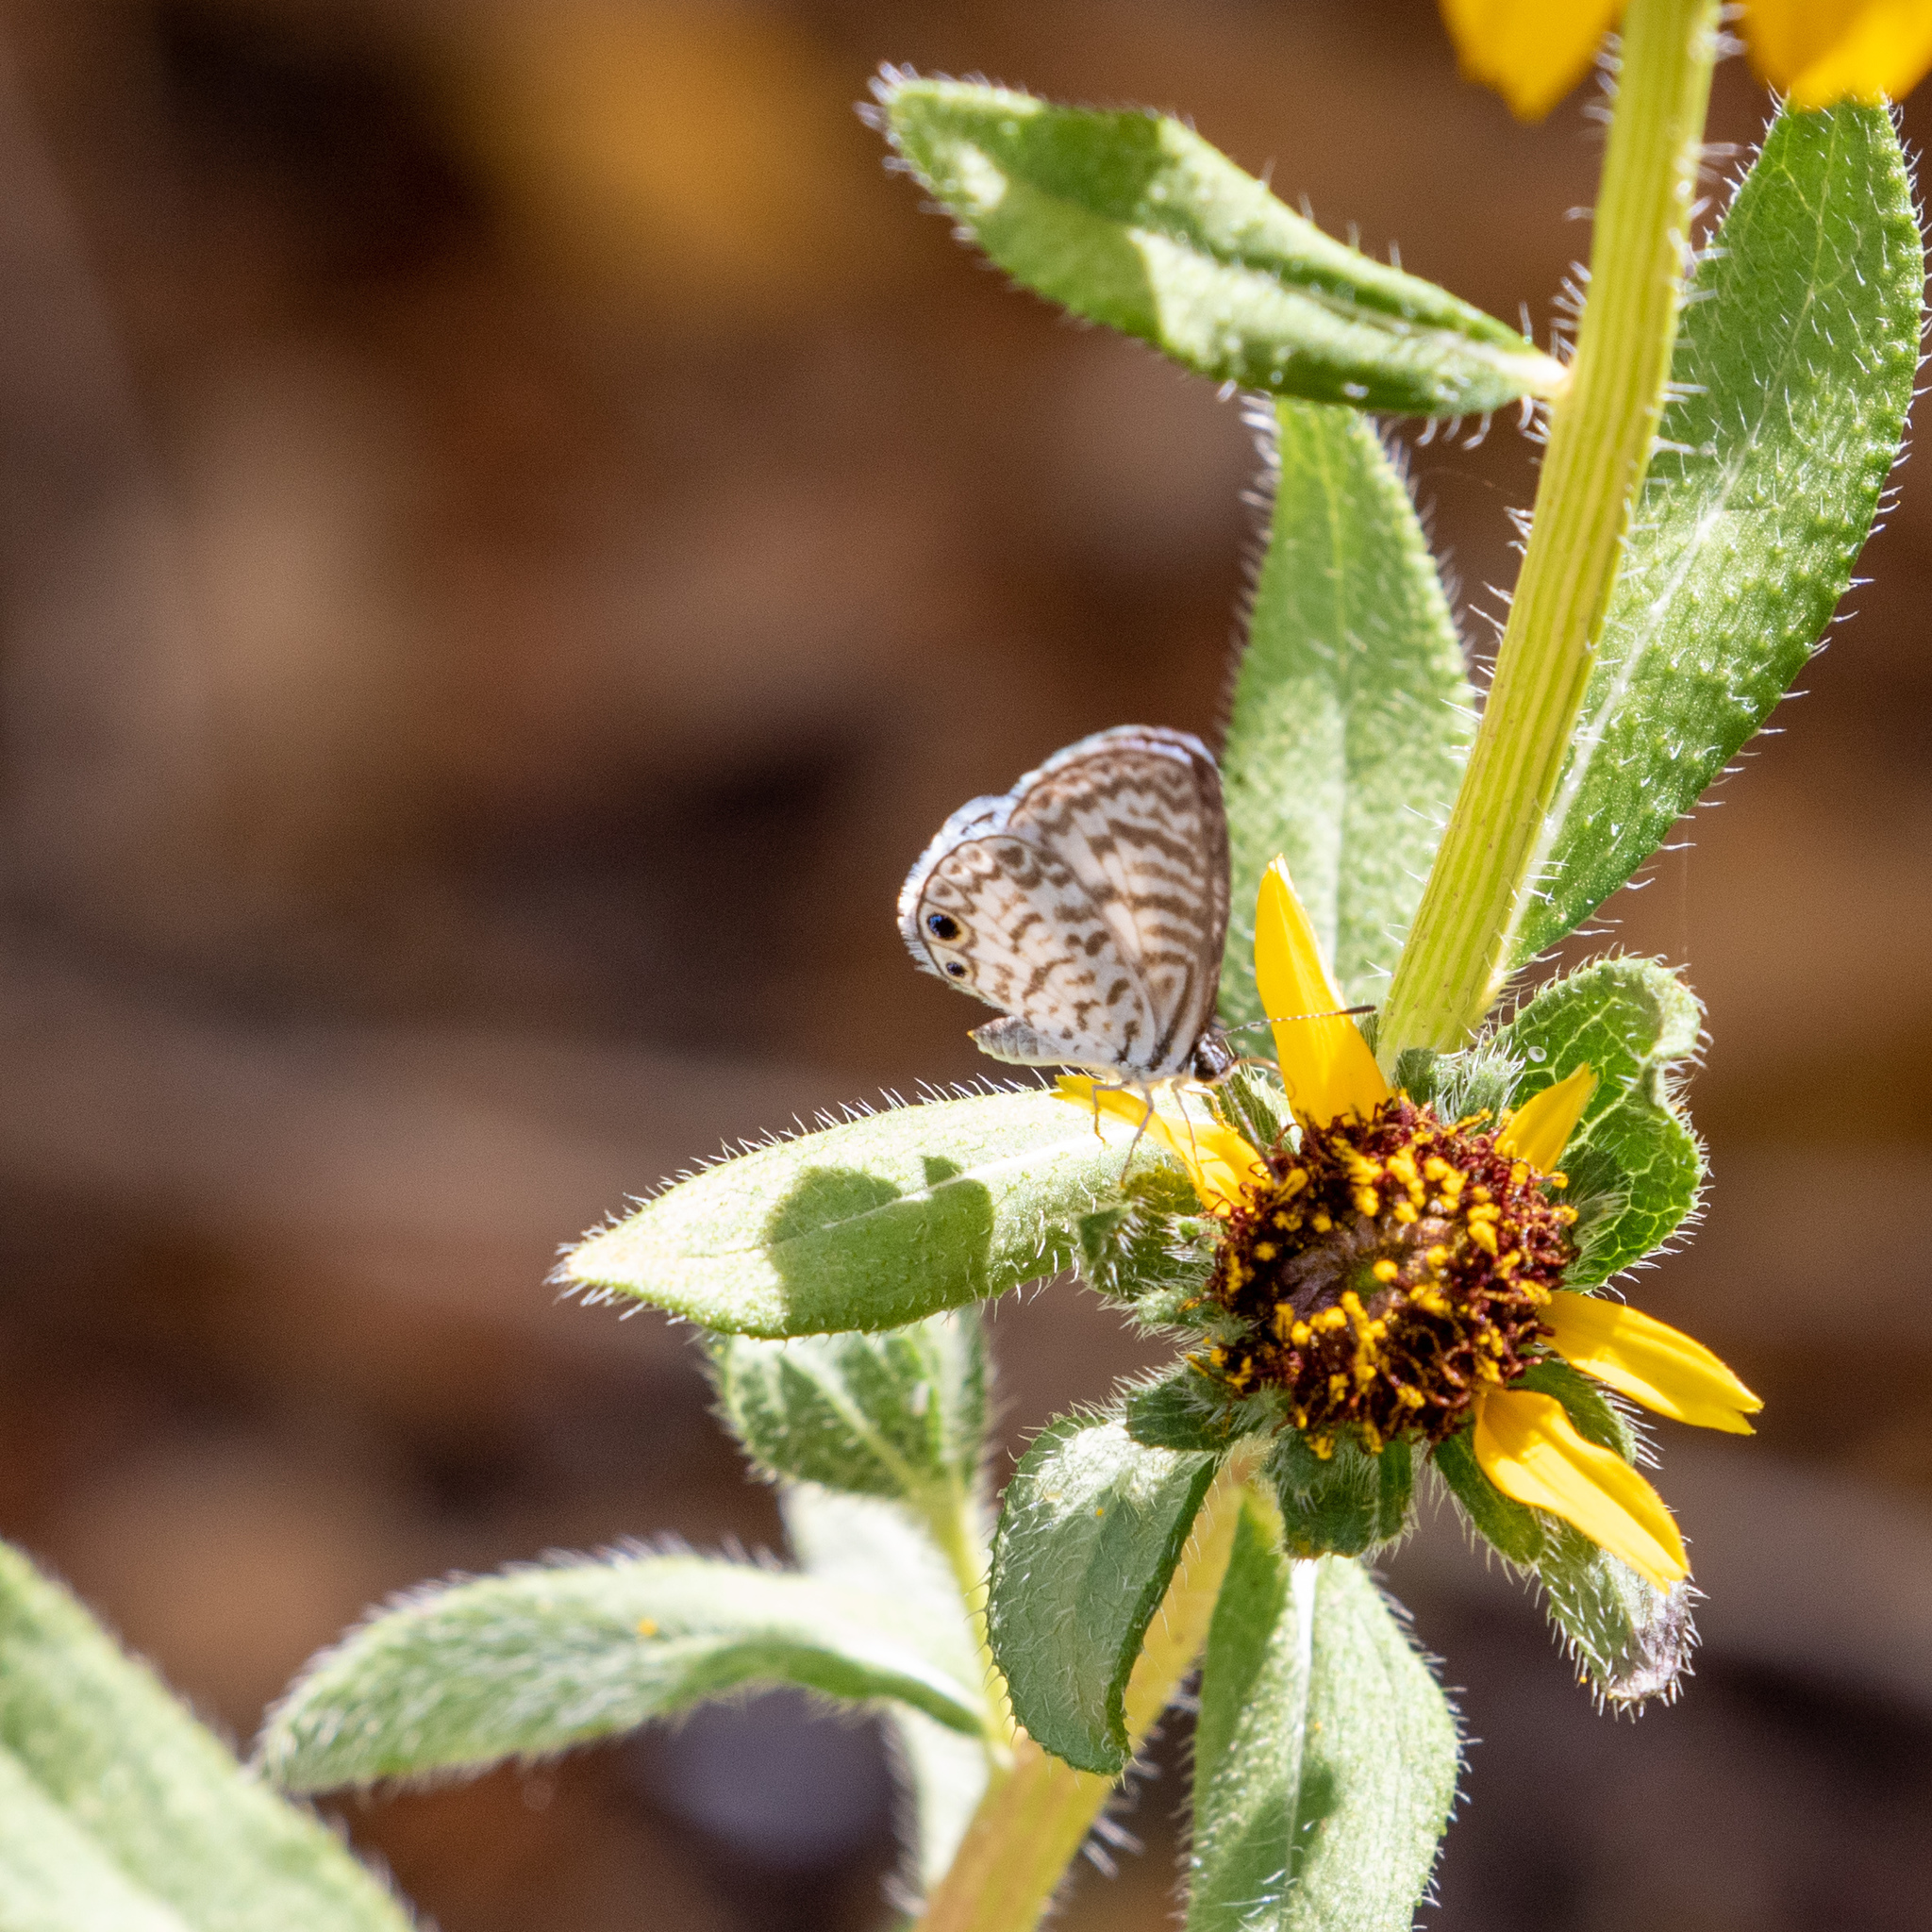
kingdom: Animalia
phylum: Arthropoda
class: Insecta
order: Lepidoptera
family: Lycaenidae
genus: Leptotes
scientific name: Leptotes cassius
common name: Cassius blue
